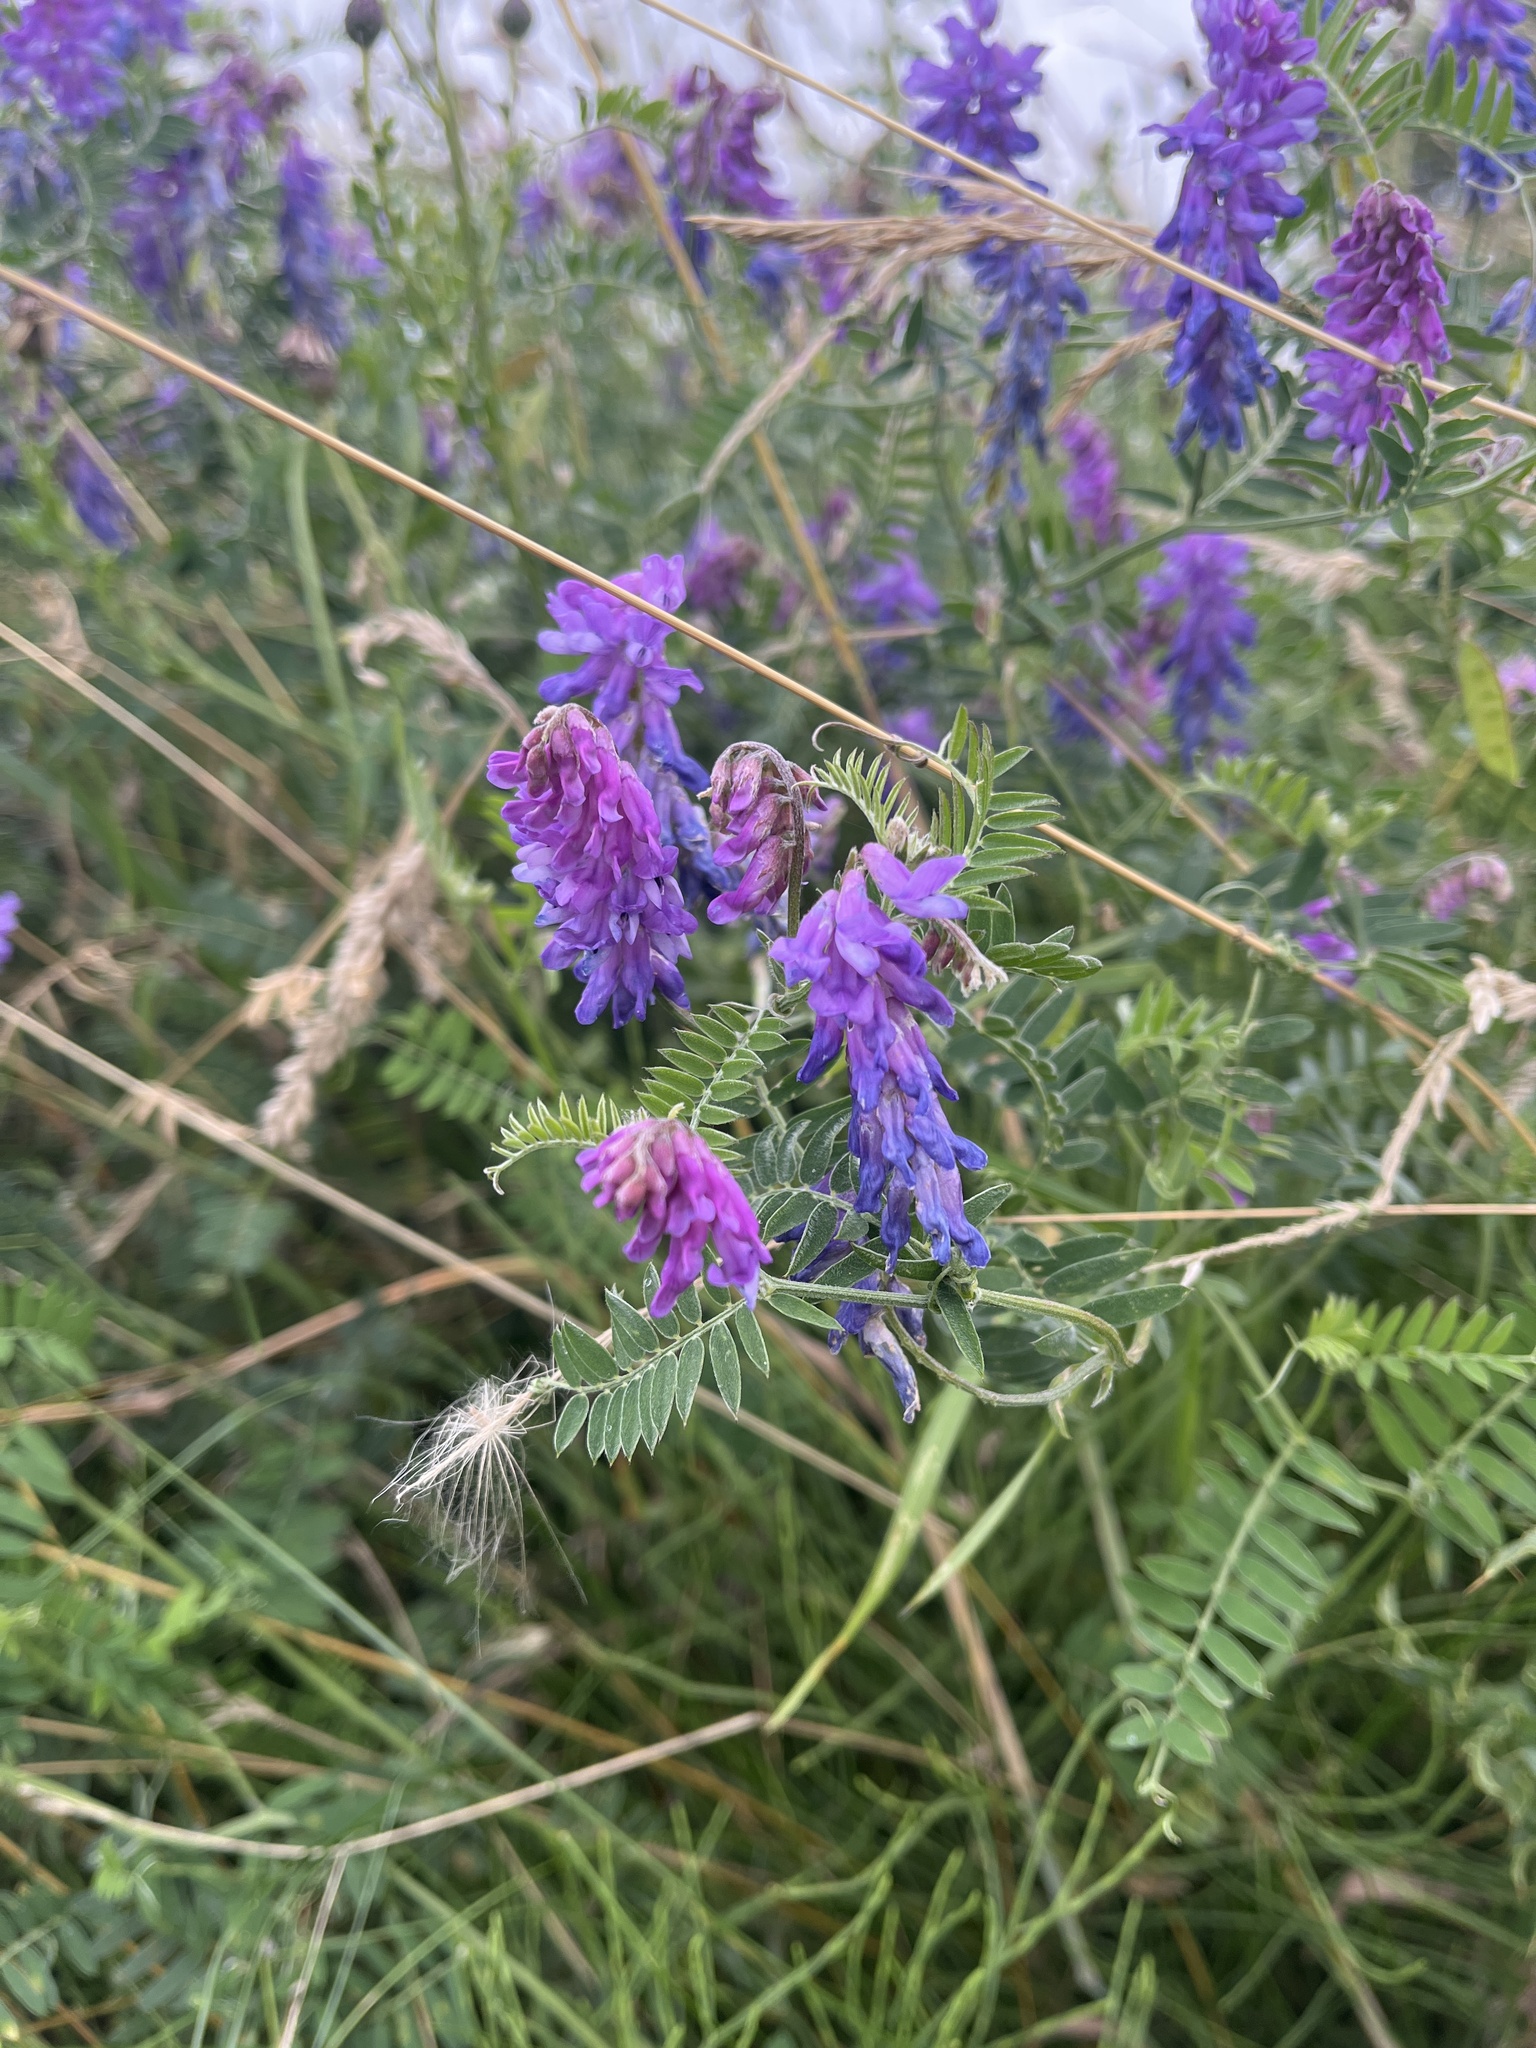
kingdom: Plantae
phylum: Tracheophyta
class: Magnoliopsida
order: Fabales
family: Fabaceae
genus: Vicia
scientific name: Vicia cracca
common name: Bird vetch
